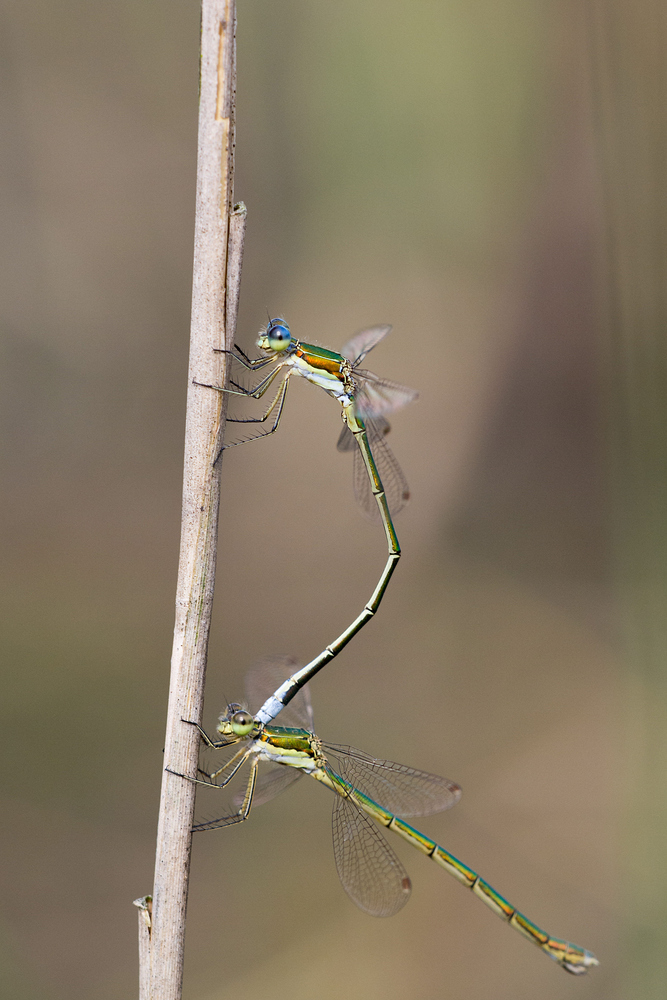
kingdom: Animalia
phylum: Arthropoda
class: Insecta
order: Odonata
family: Lestidae
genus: Lestes
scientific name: Lestes virens
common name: Small emerald spreadwing
